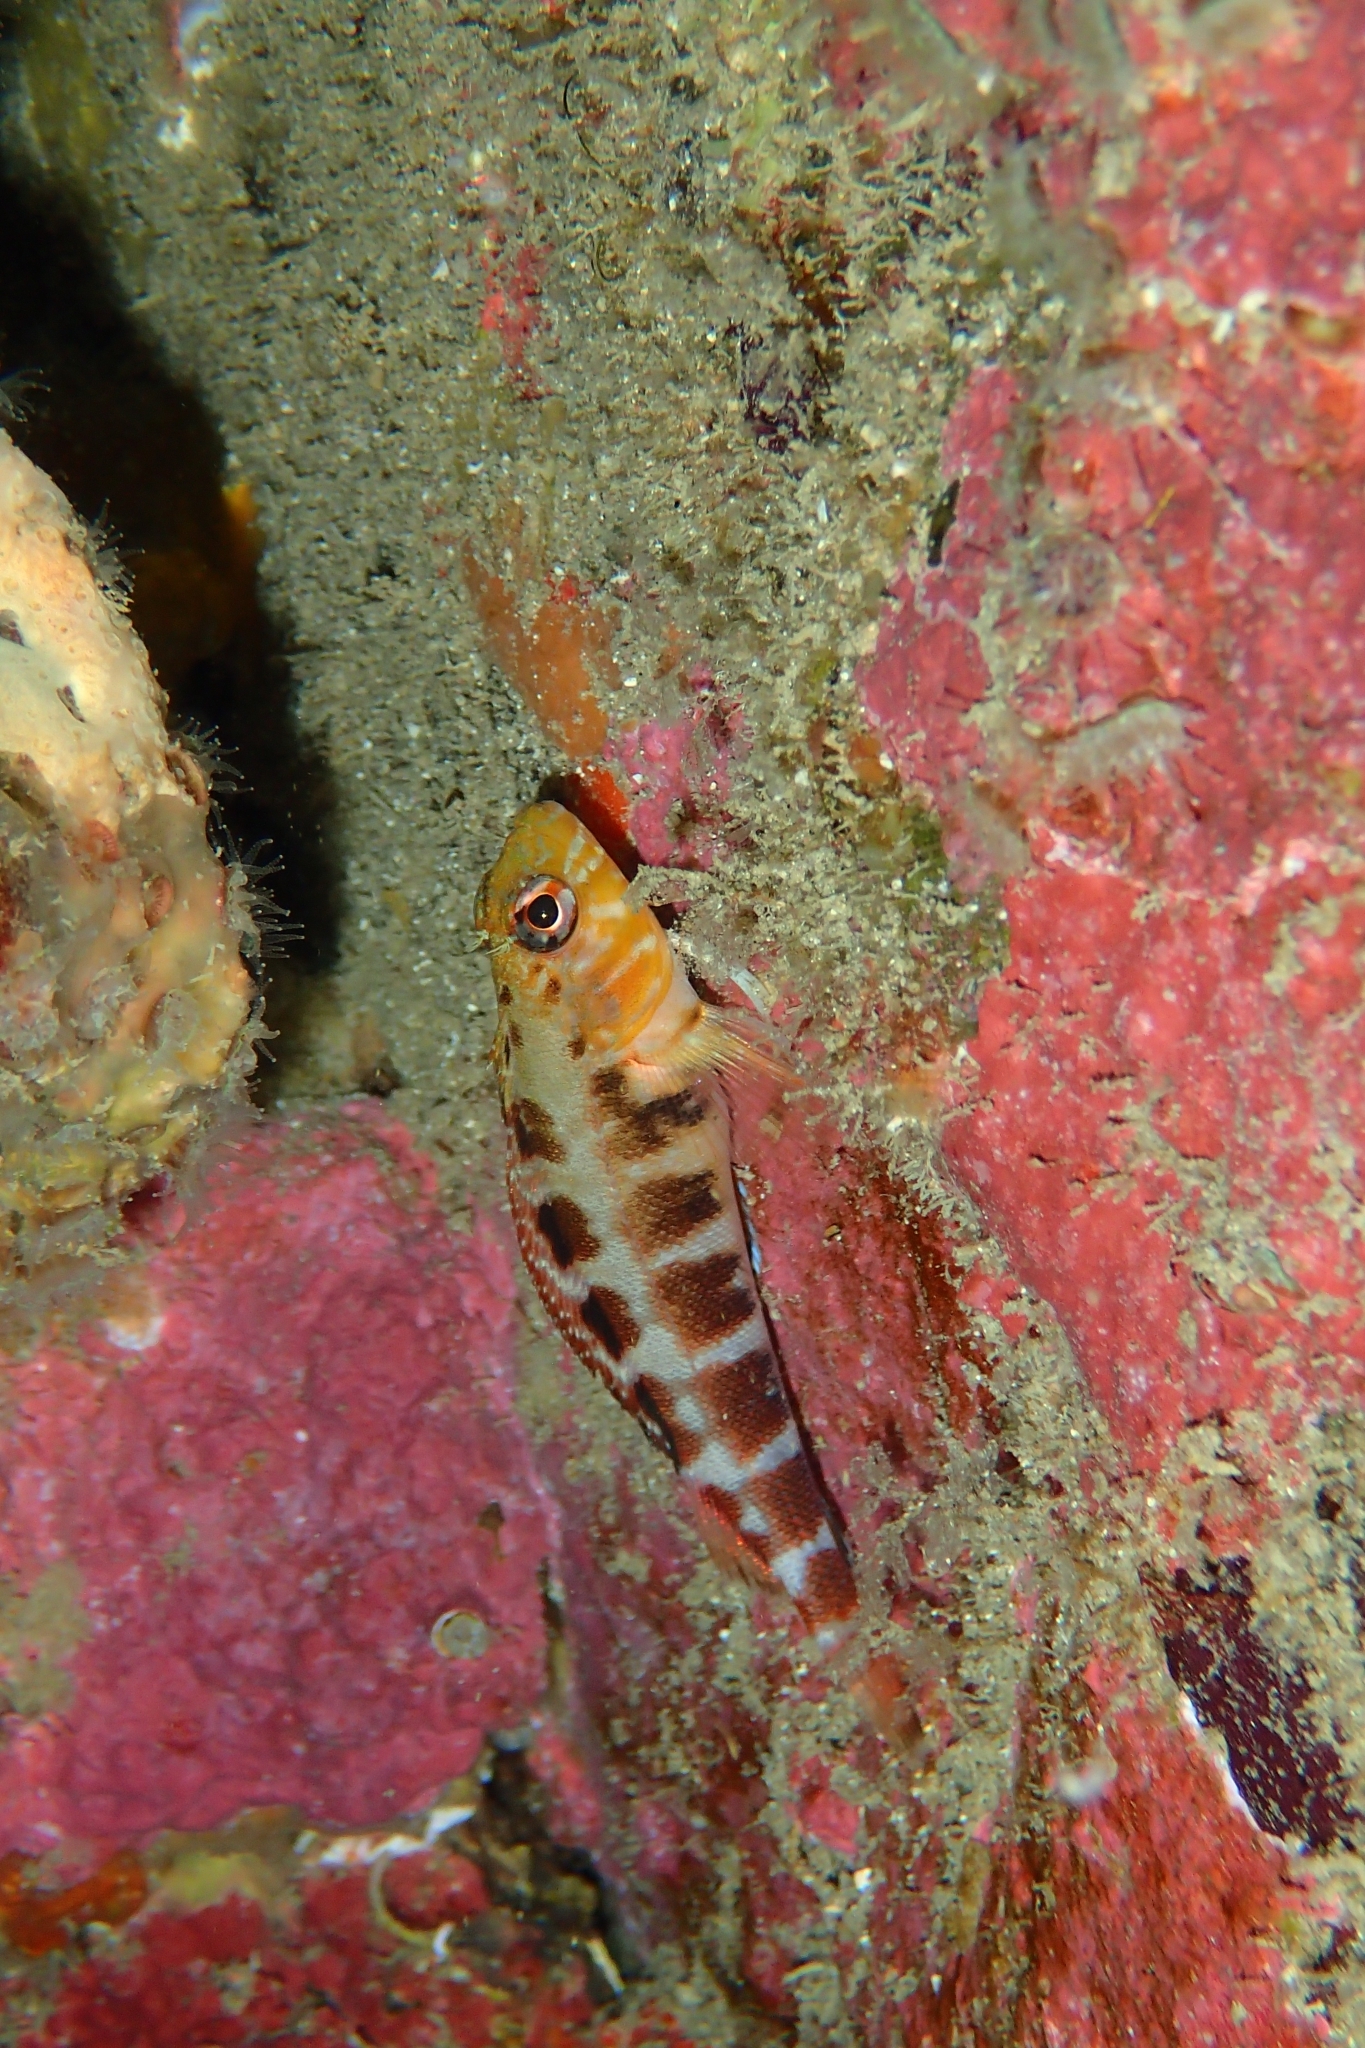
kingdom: Animalia
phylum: Chordata
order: Perciformes
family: Tripterygiidae
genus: Forsterygion
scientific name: Forsterygion malcolmi
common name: Mottled triplefin
